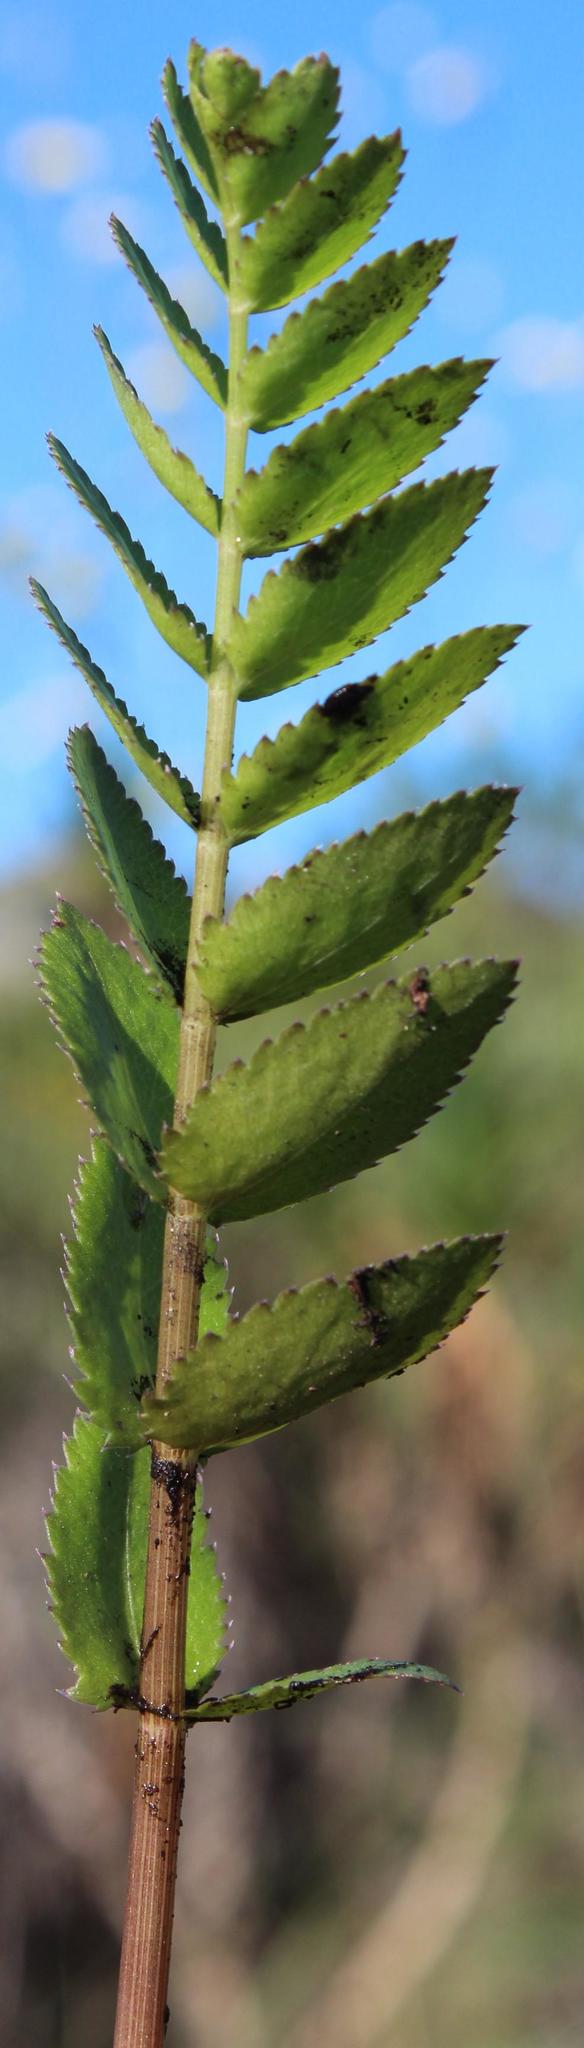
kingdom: Plantae
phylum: Tracheophyta
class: Magnoliopsida
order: Apiales
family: Apiaceae
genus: Berula
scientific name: Berula thunbergii
